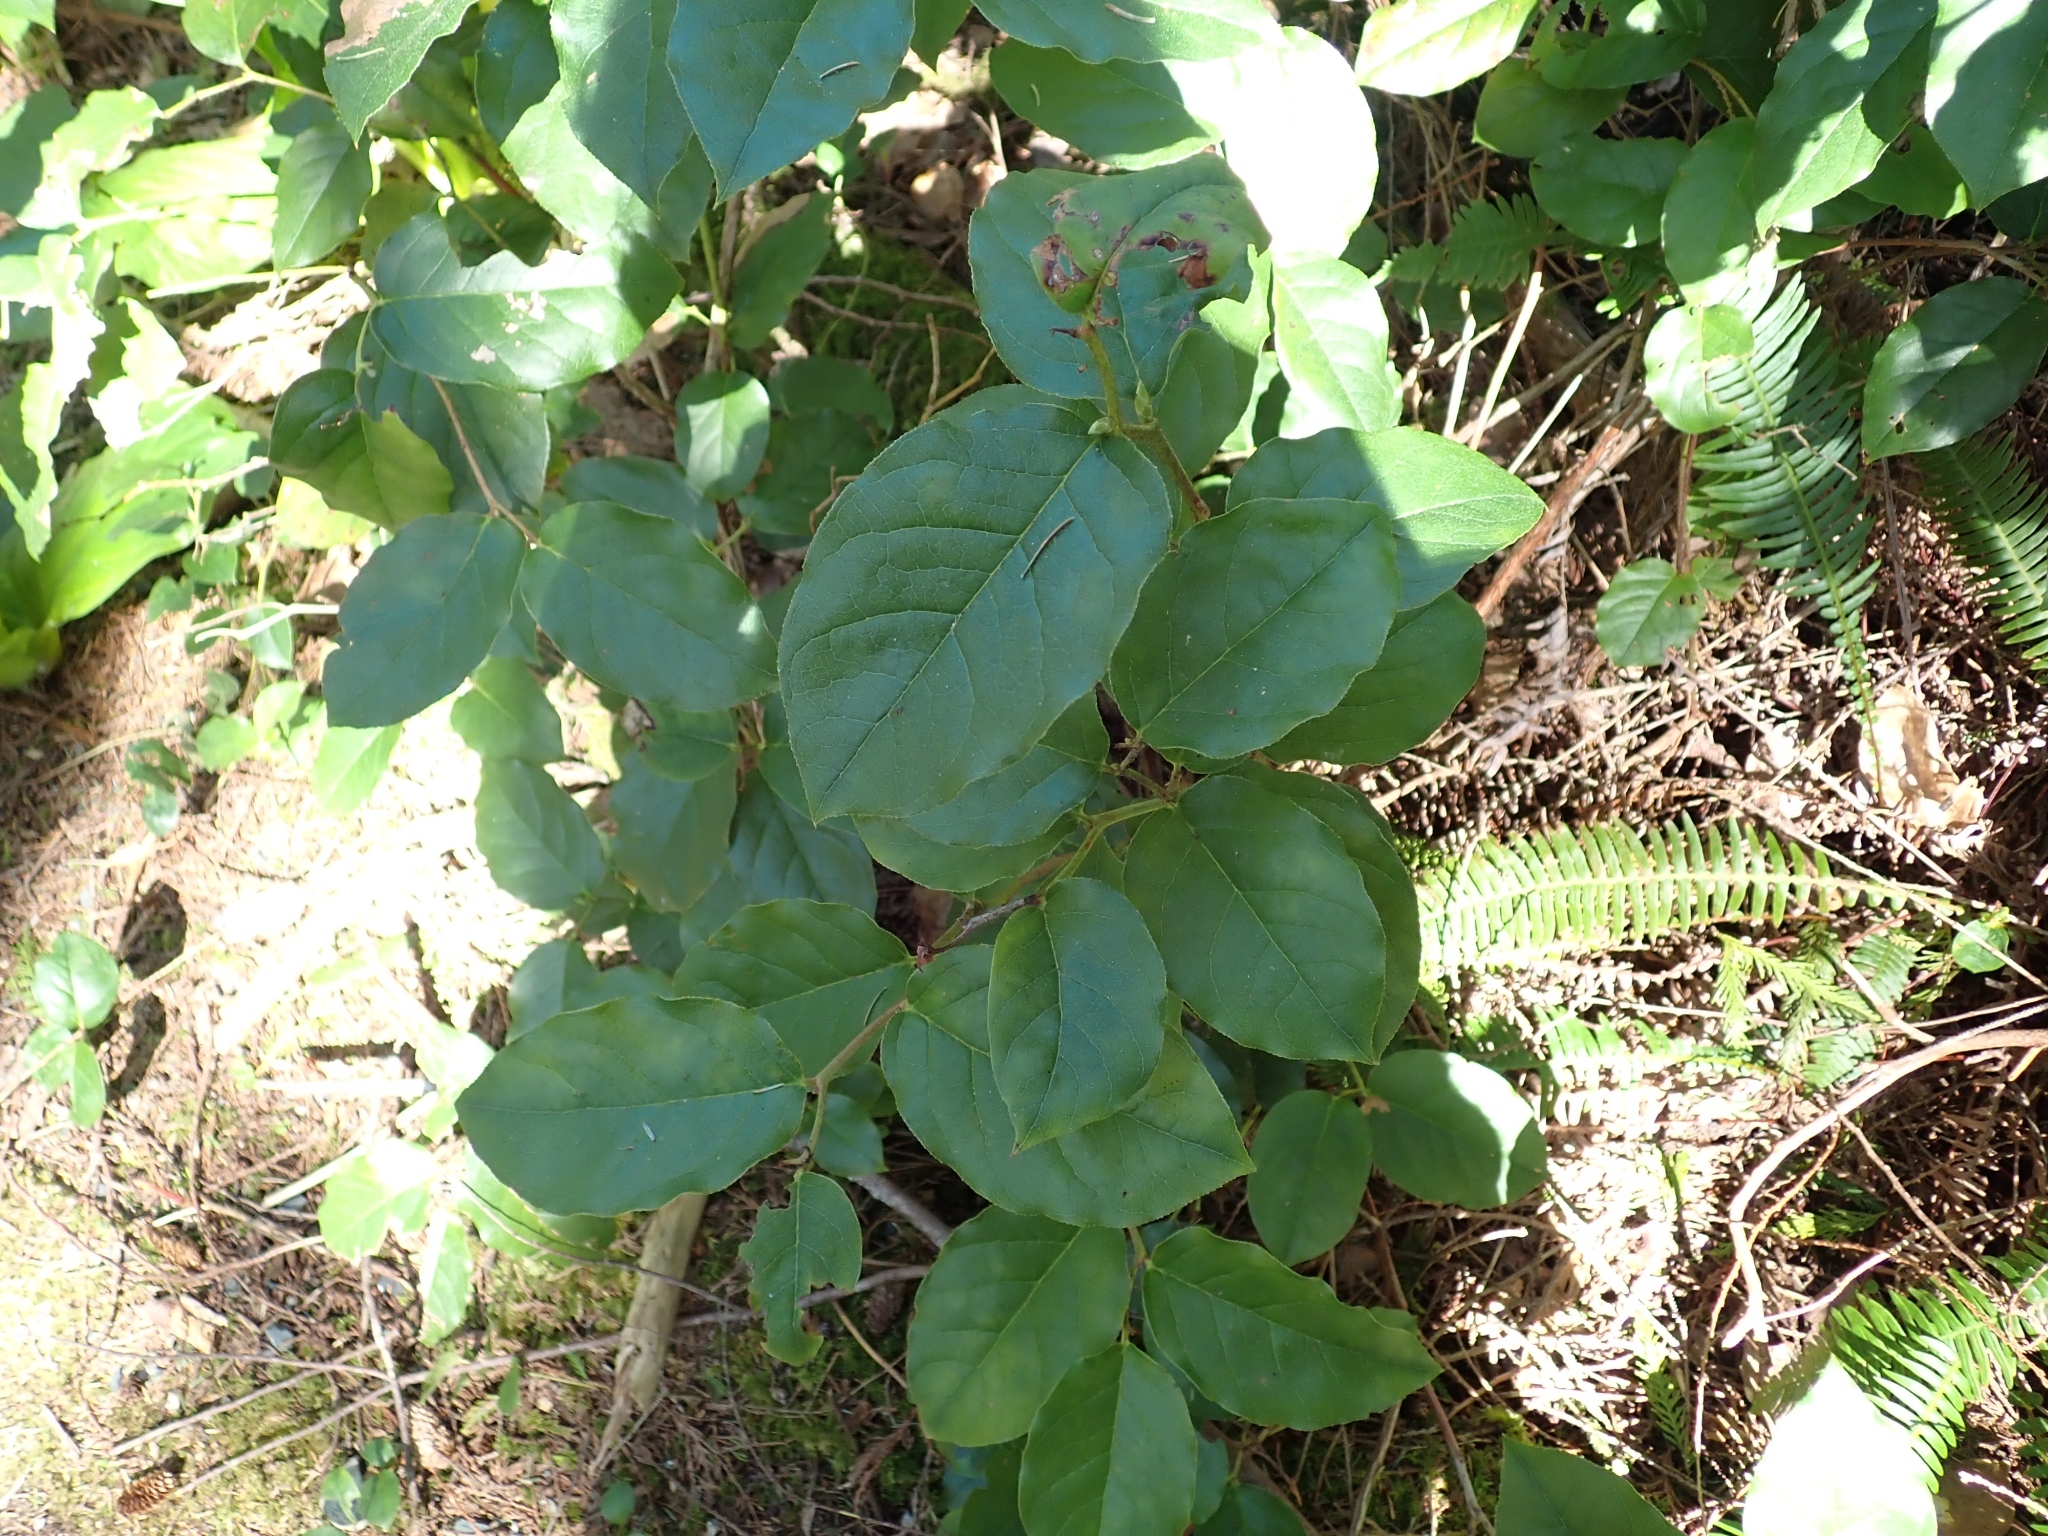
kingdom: Plantae
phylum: Tracheophyta
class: Magnoliopsida
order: Ericales
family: Ericaceae
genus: Gaultheria
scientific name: Gaultheria shallon
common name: Shallon
